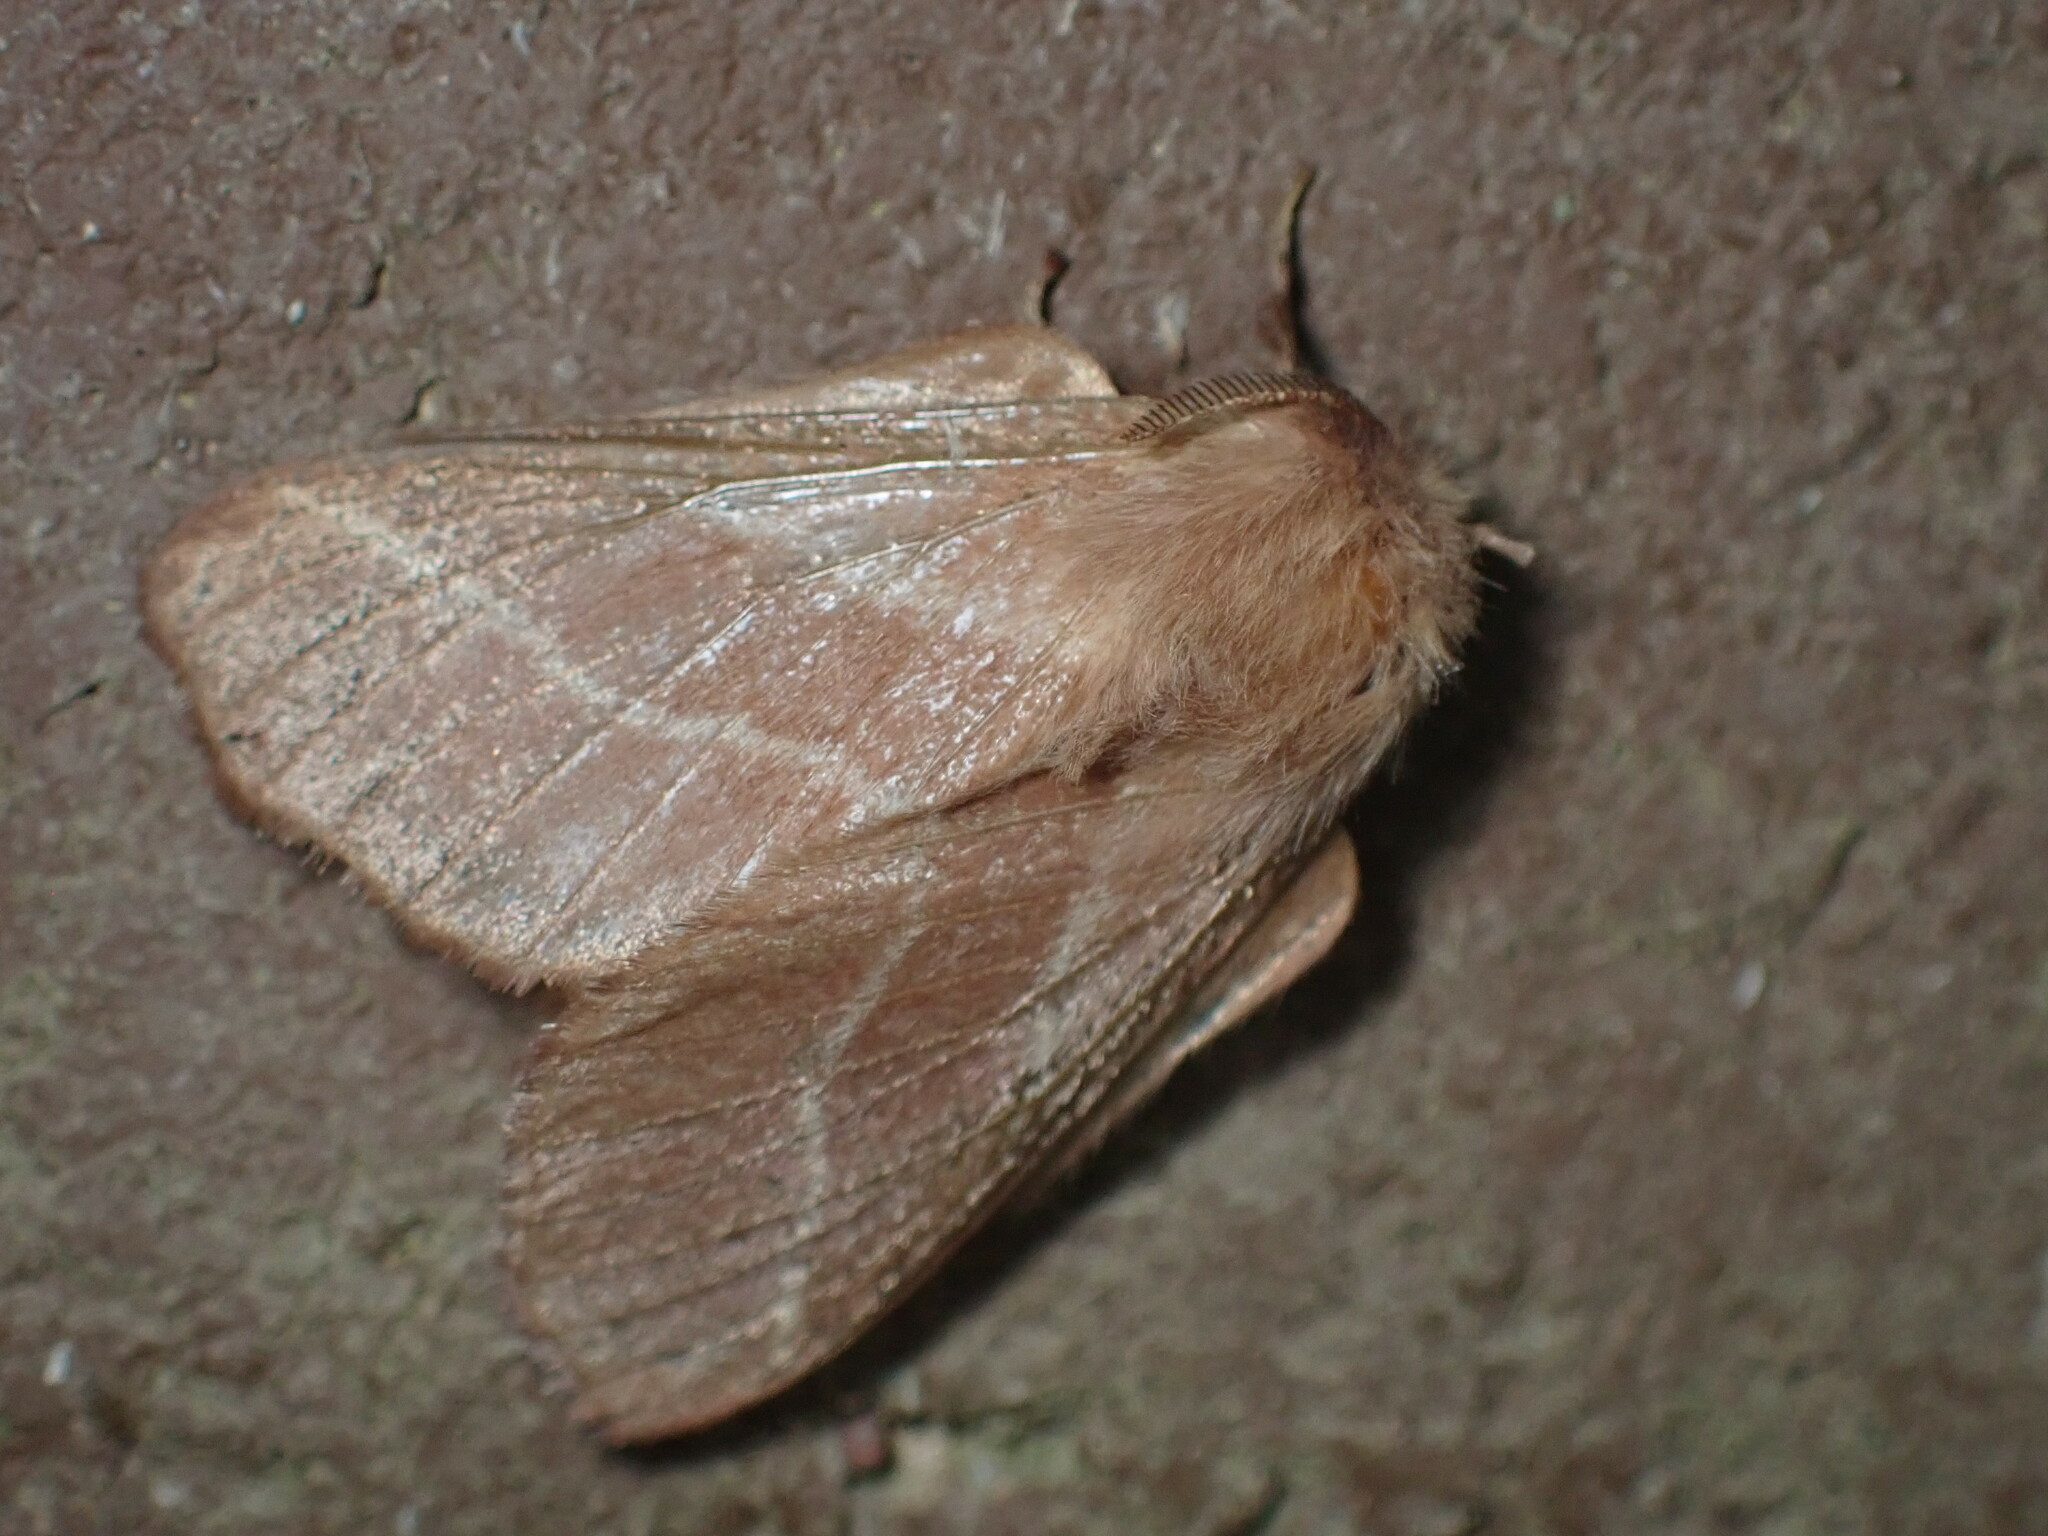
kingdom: Animalia
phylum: Arthropoda
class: Insecta
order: Lepidoptera
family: Lasiocampidae
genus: Malacosoma
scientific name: Malacosoma americana
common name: Eastern tent caterpillar moth
